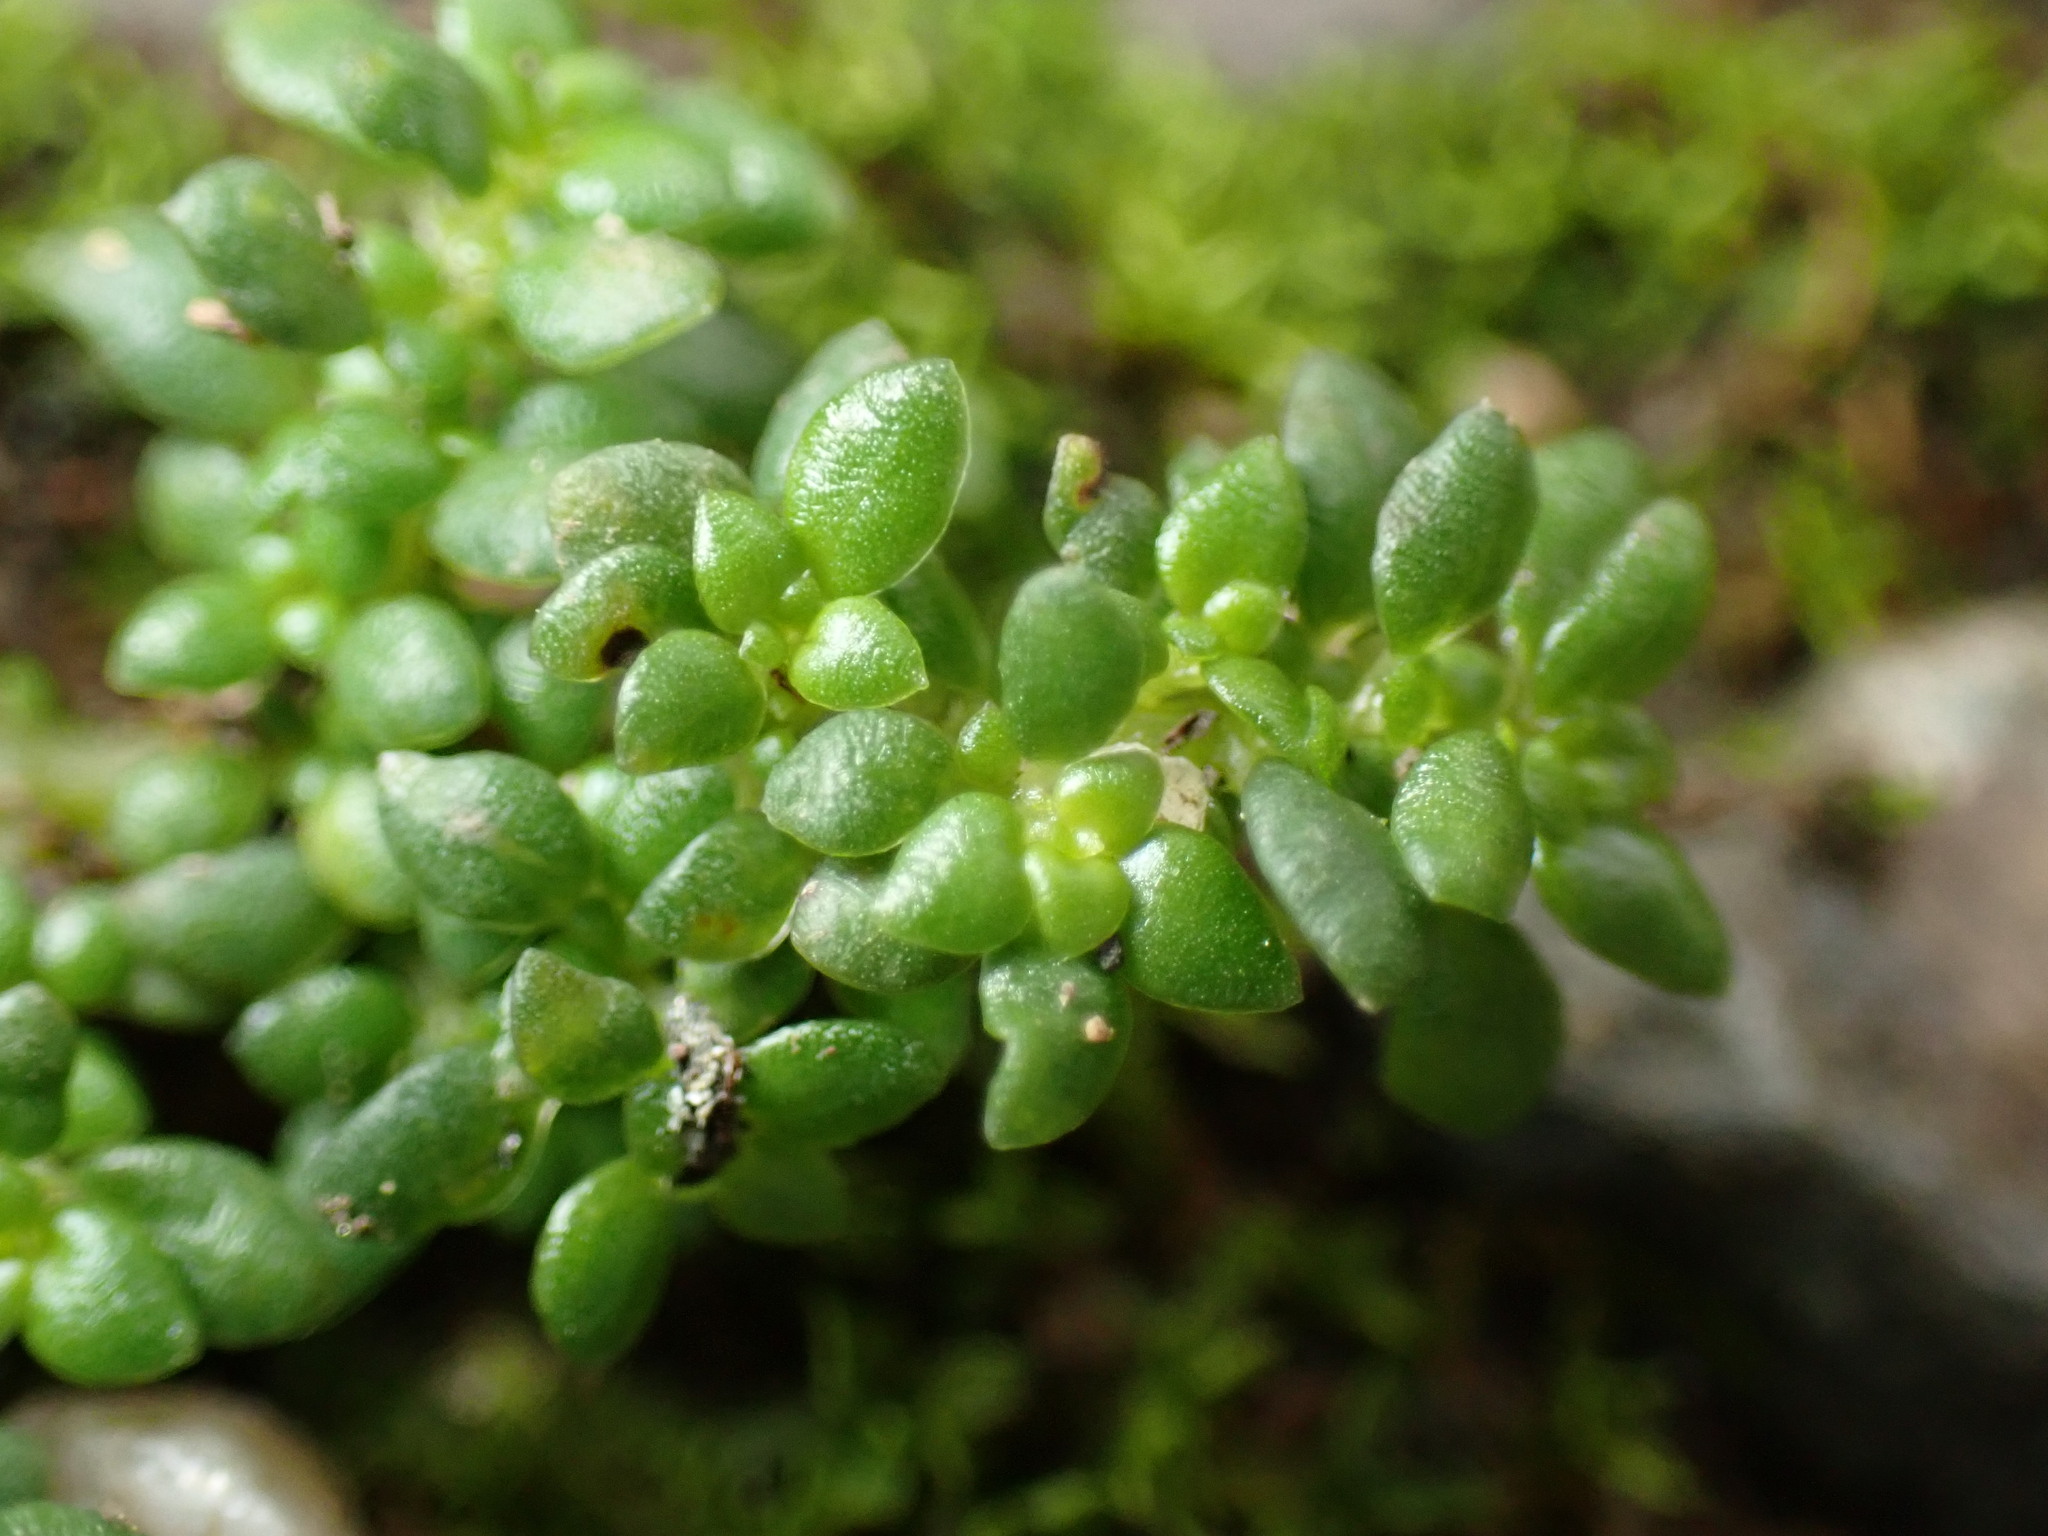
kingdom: Plantae
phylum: Tracheophyta
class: Magnoliopsida
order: Rosales
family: Urticaceae
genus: Pilea
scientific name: Pilea microphylla
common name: Artillery-plant
